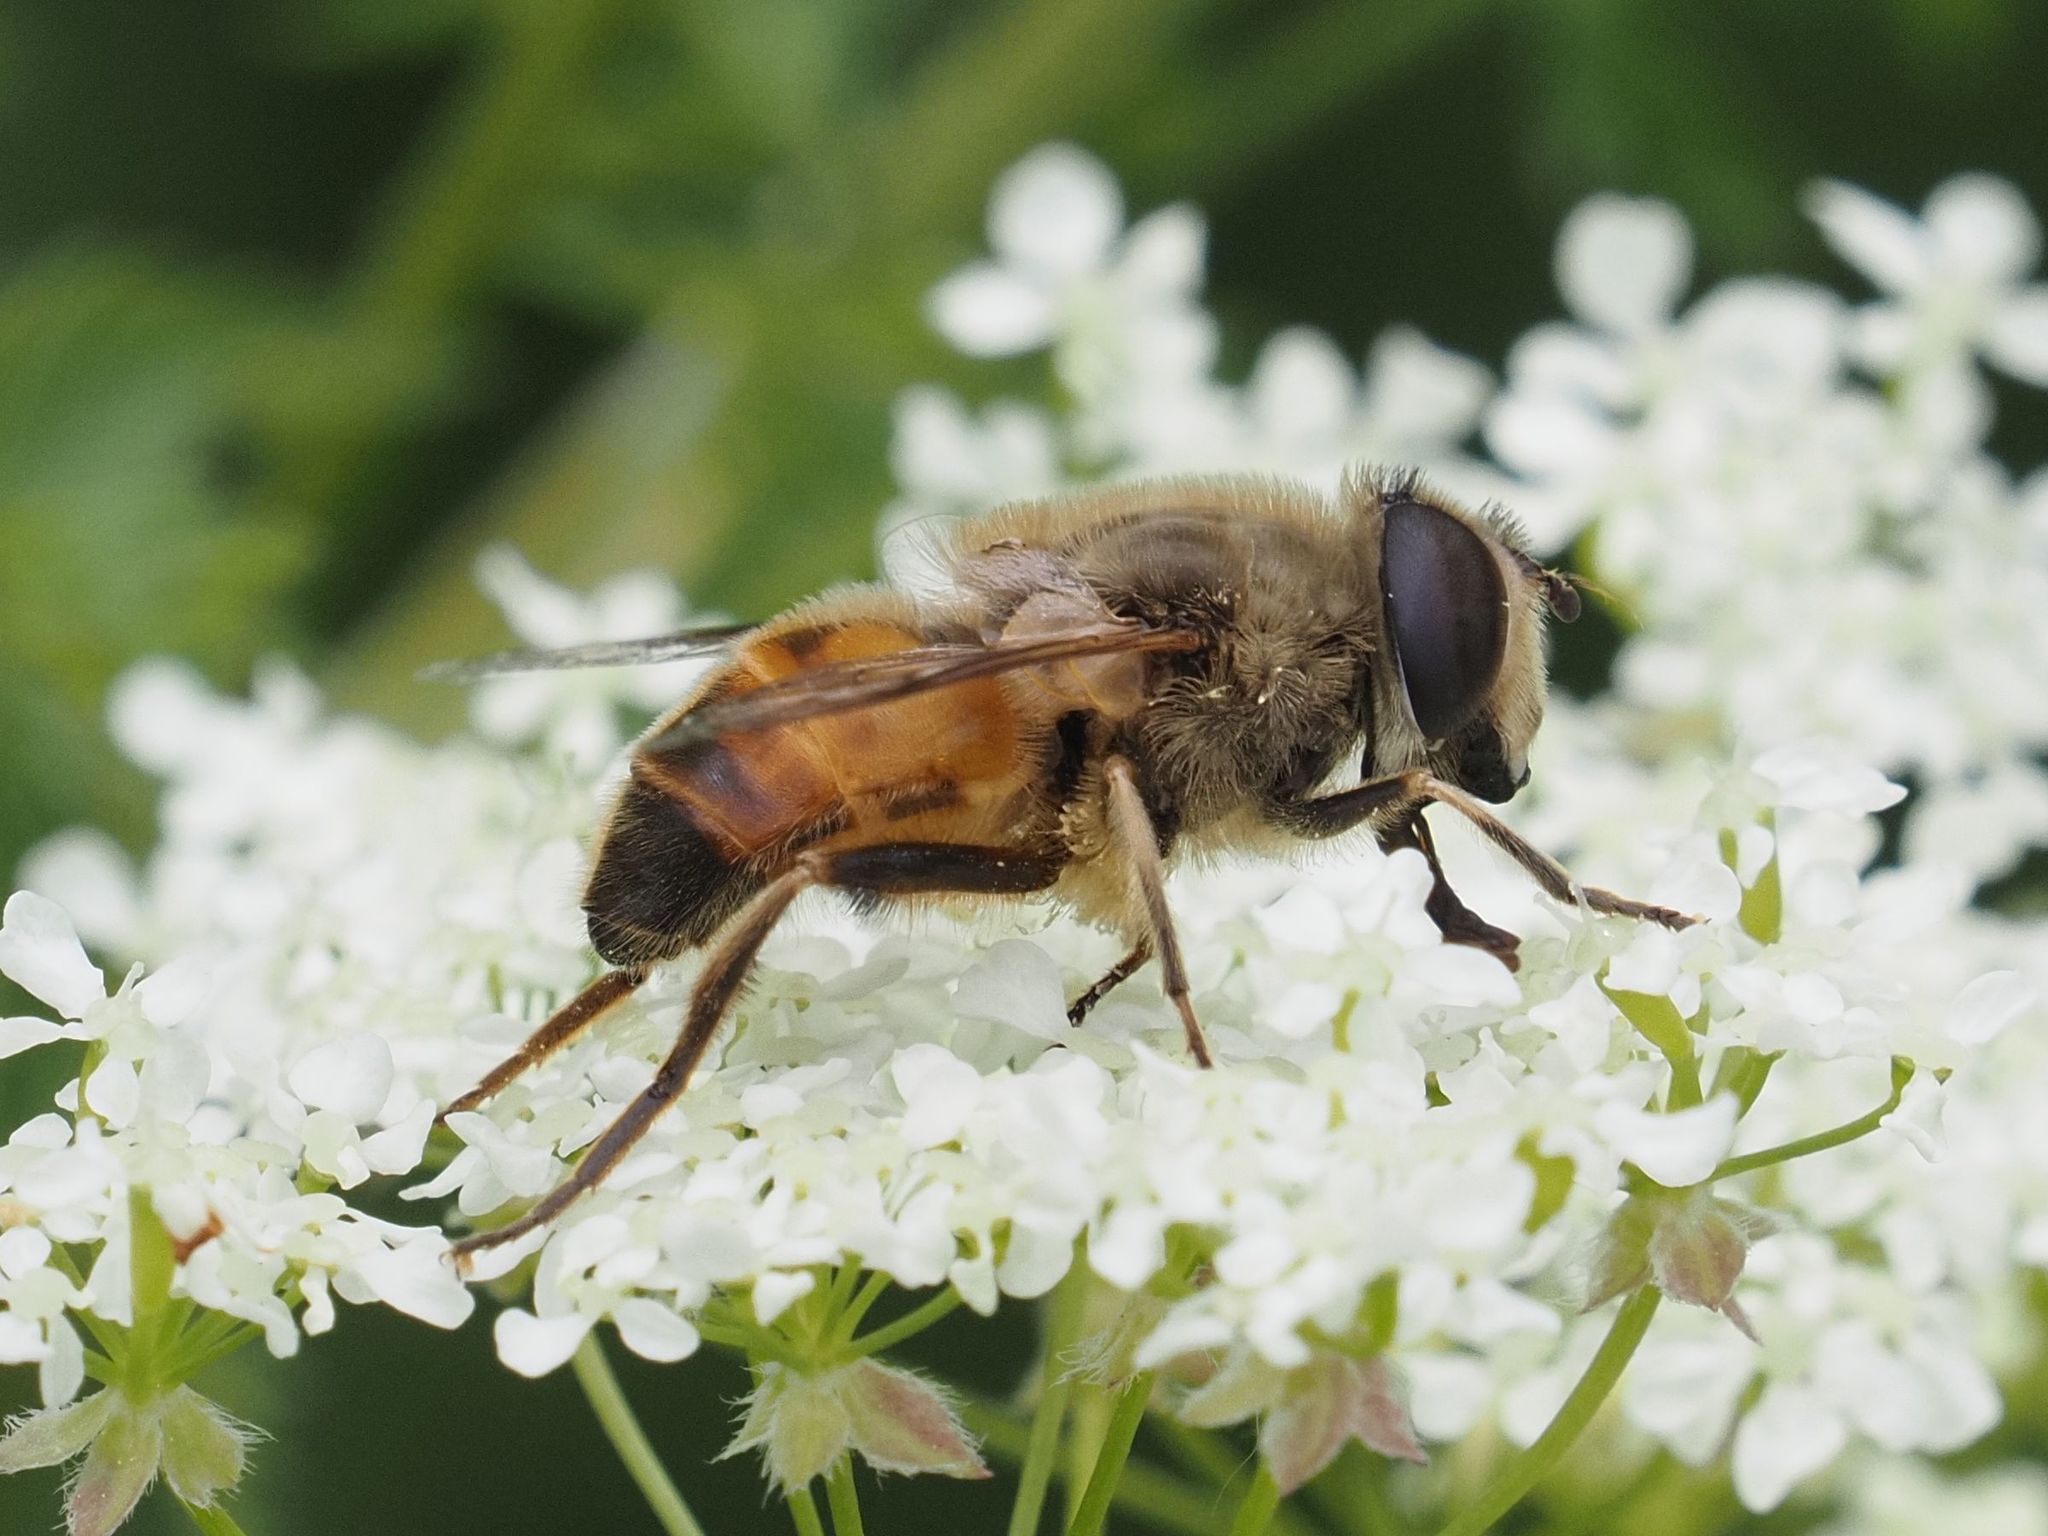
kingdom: Animalia
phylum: Arthropoda
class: Insecta
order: Diptera
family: Syrphidae
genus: Eristalis
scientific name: Eristalis tenax
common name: Drone fly
